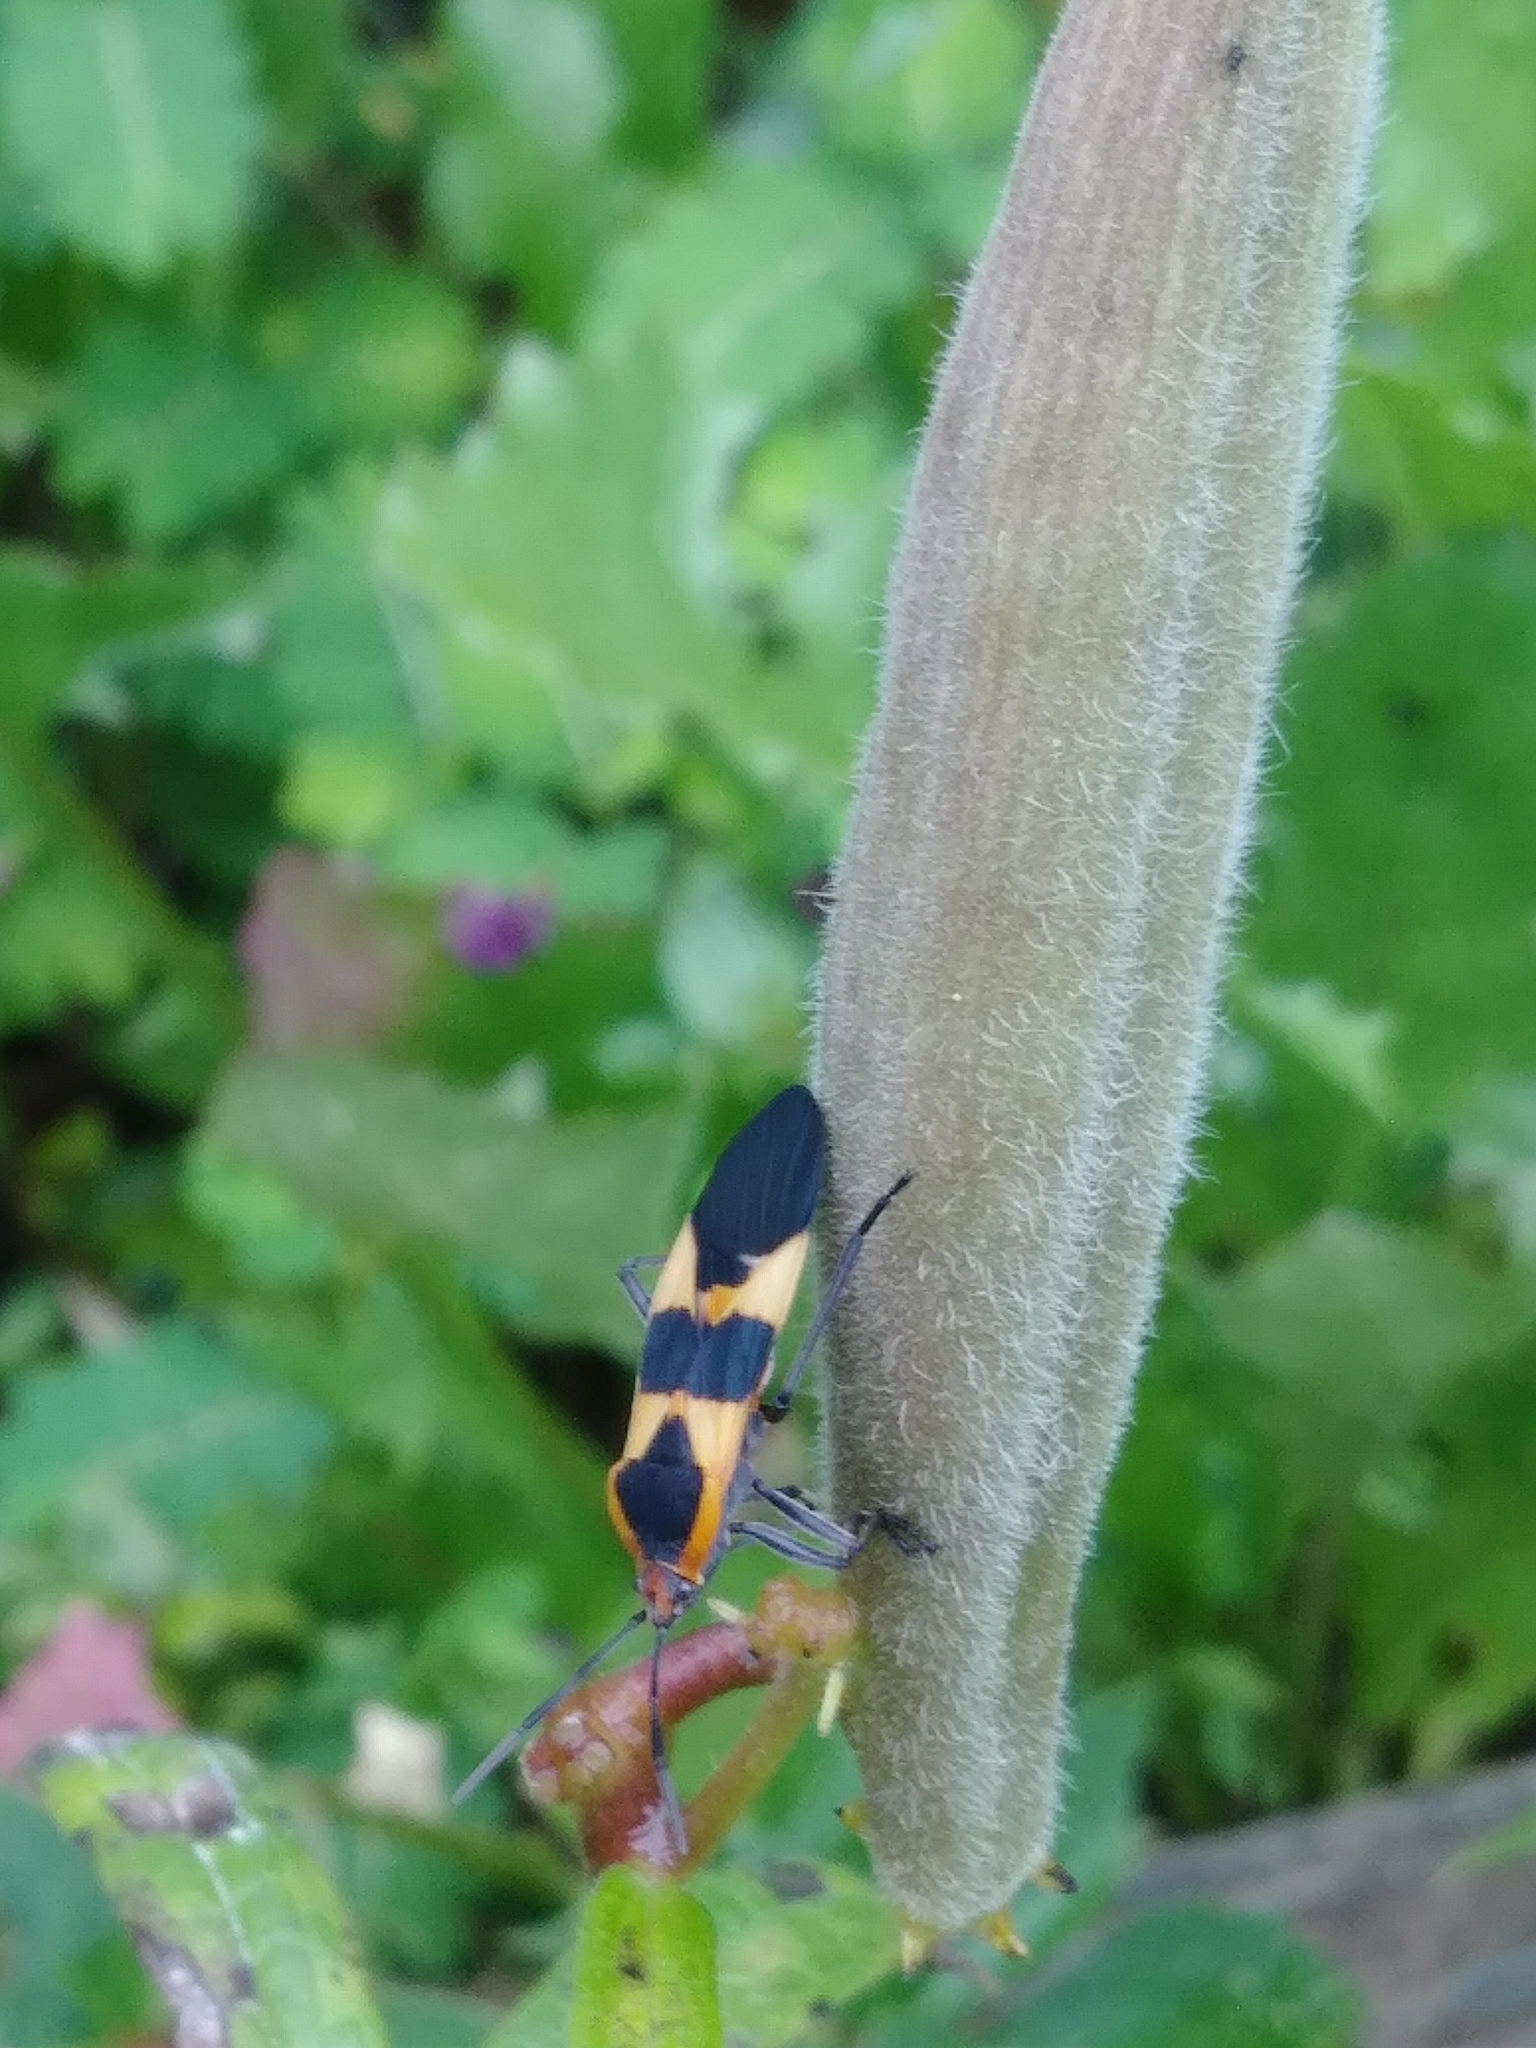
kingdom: Animalia
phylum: Arthropoda
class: Insecta
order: Hemiptera
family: Lygaeidae
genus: Oncopeltus
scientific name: Oncopeltus fasciatus
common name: Large milkweed bug
